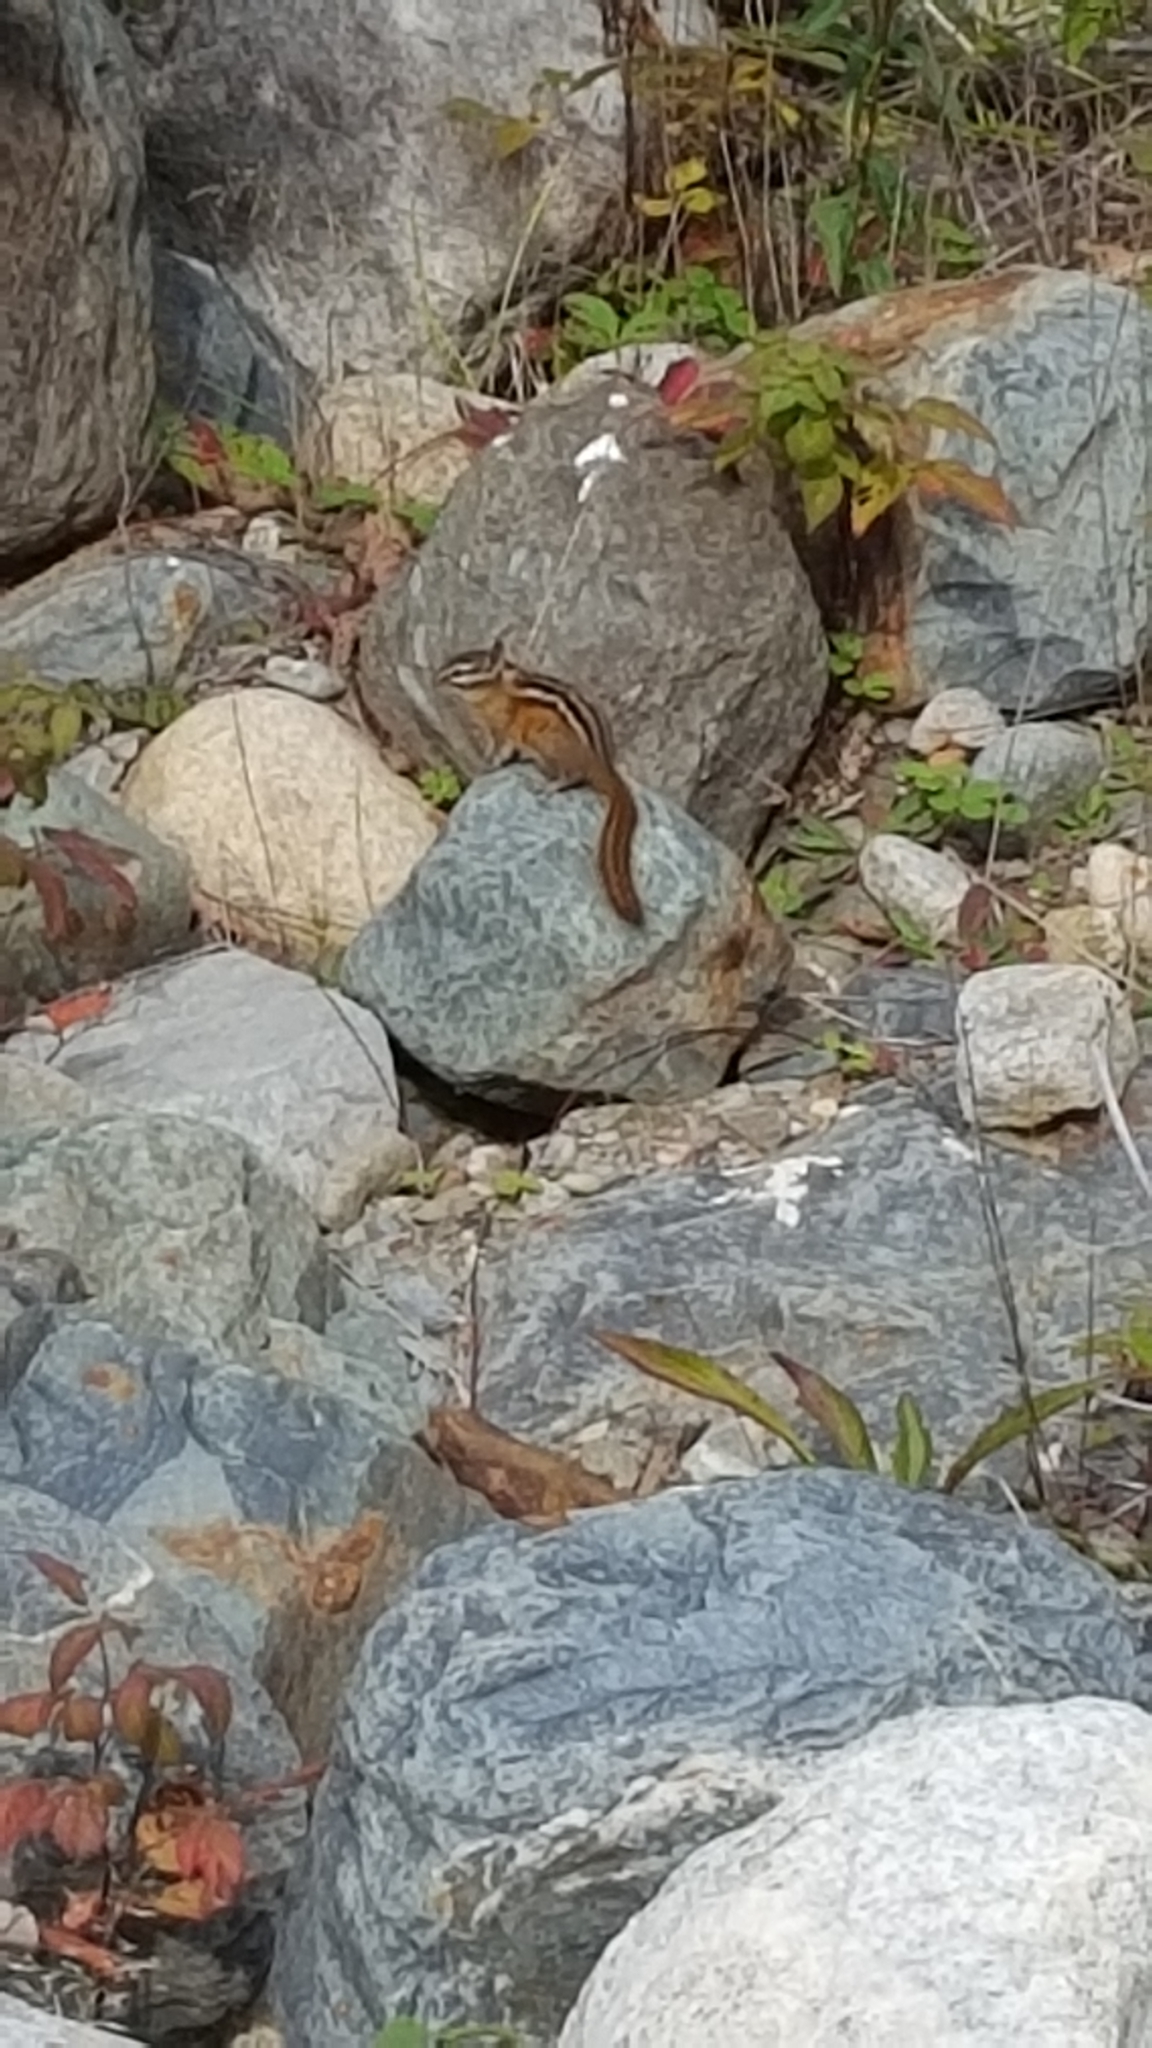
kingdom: Animalia
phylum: Chordata
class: Mammalia
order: Rodentia
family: Sciuridae
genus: Tamias
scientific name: Tamias minimus
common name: Least chipmunk
